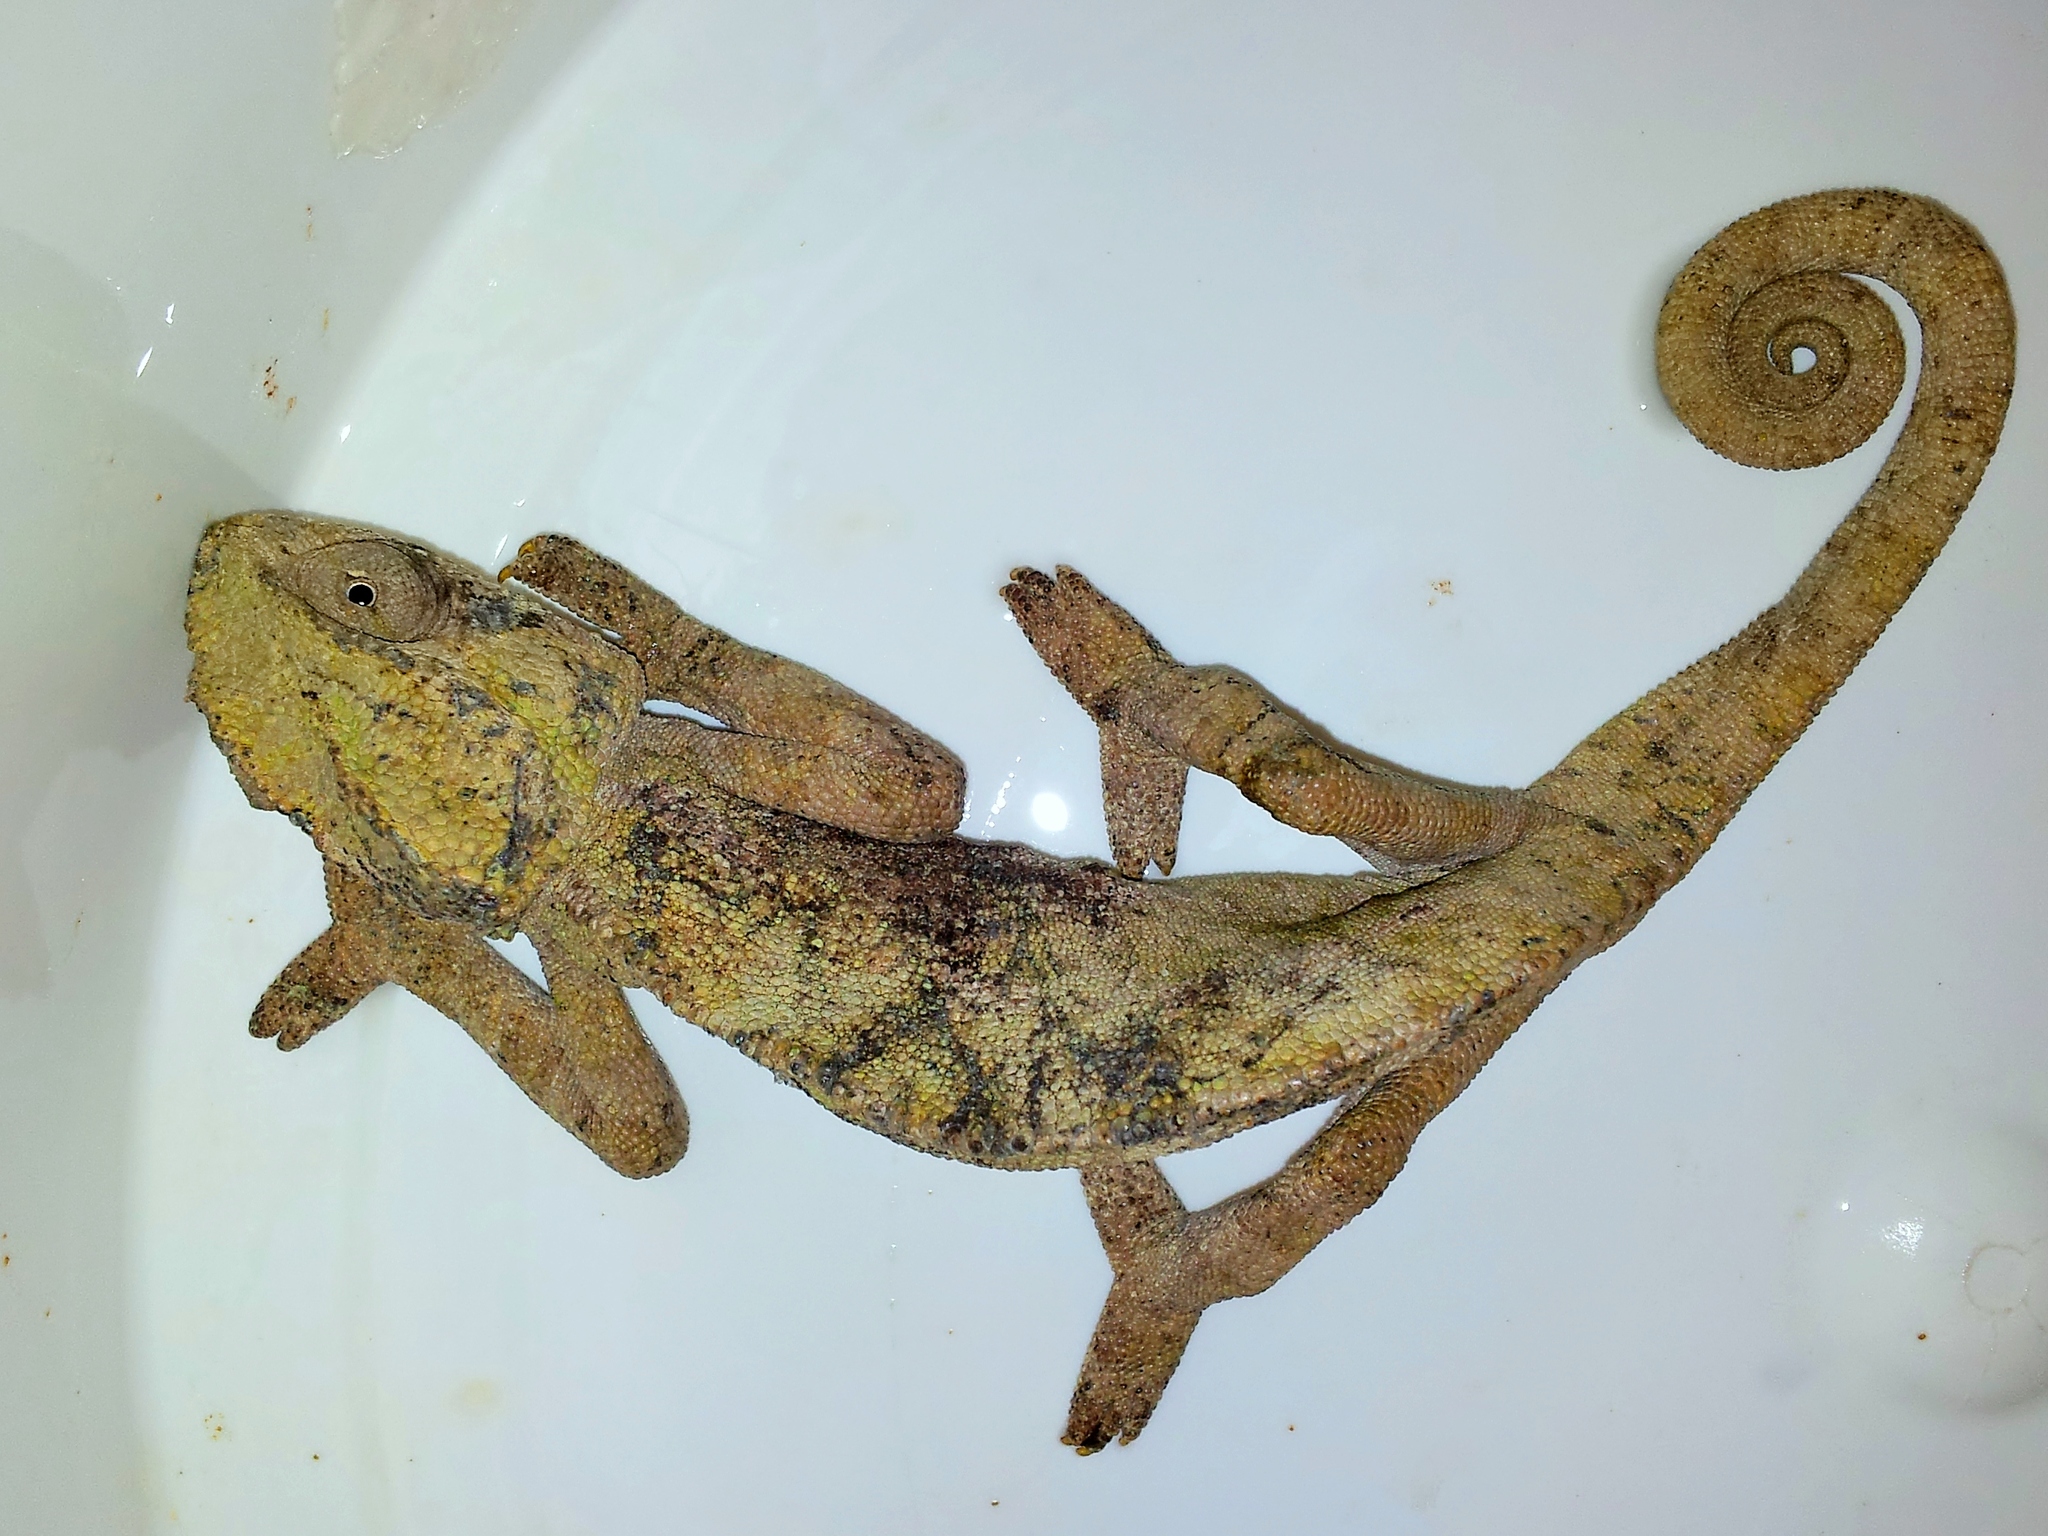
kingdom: Animalia
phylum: Chordata
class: Squamata
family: Chamaeleonidae
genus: Chamaeleo
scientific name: Chamaeleo chamaeleon
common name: Mediterranean chameleon
